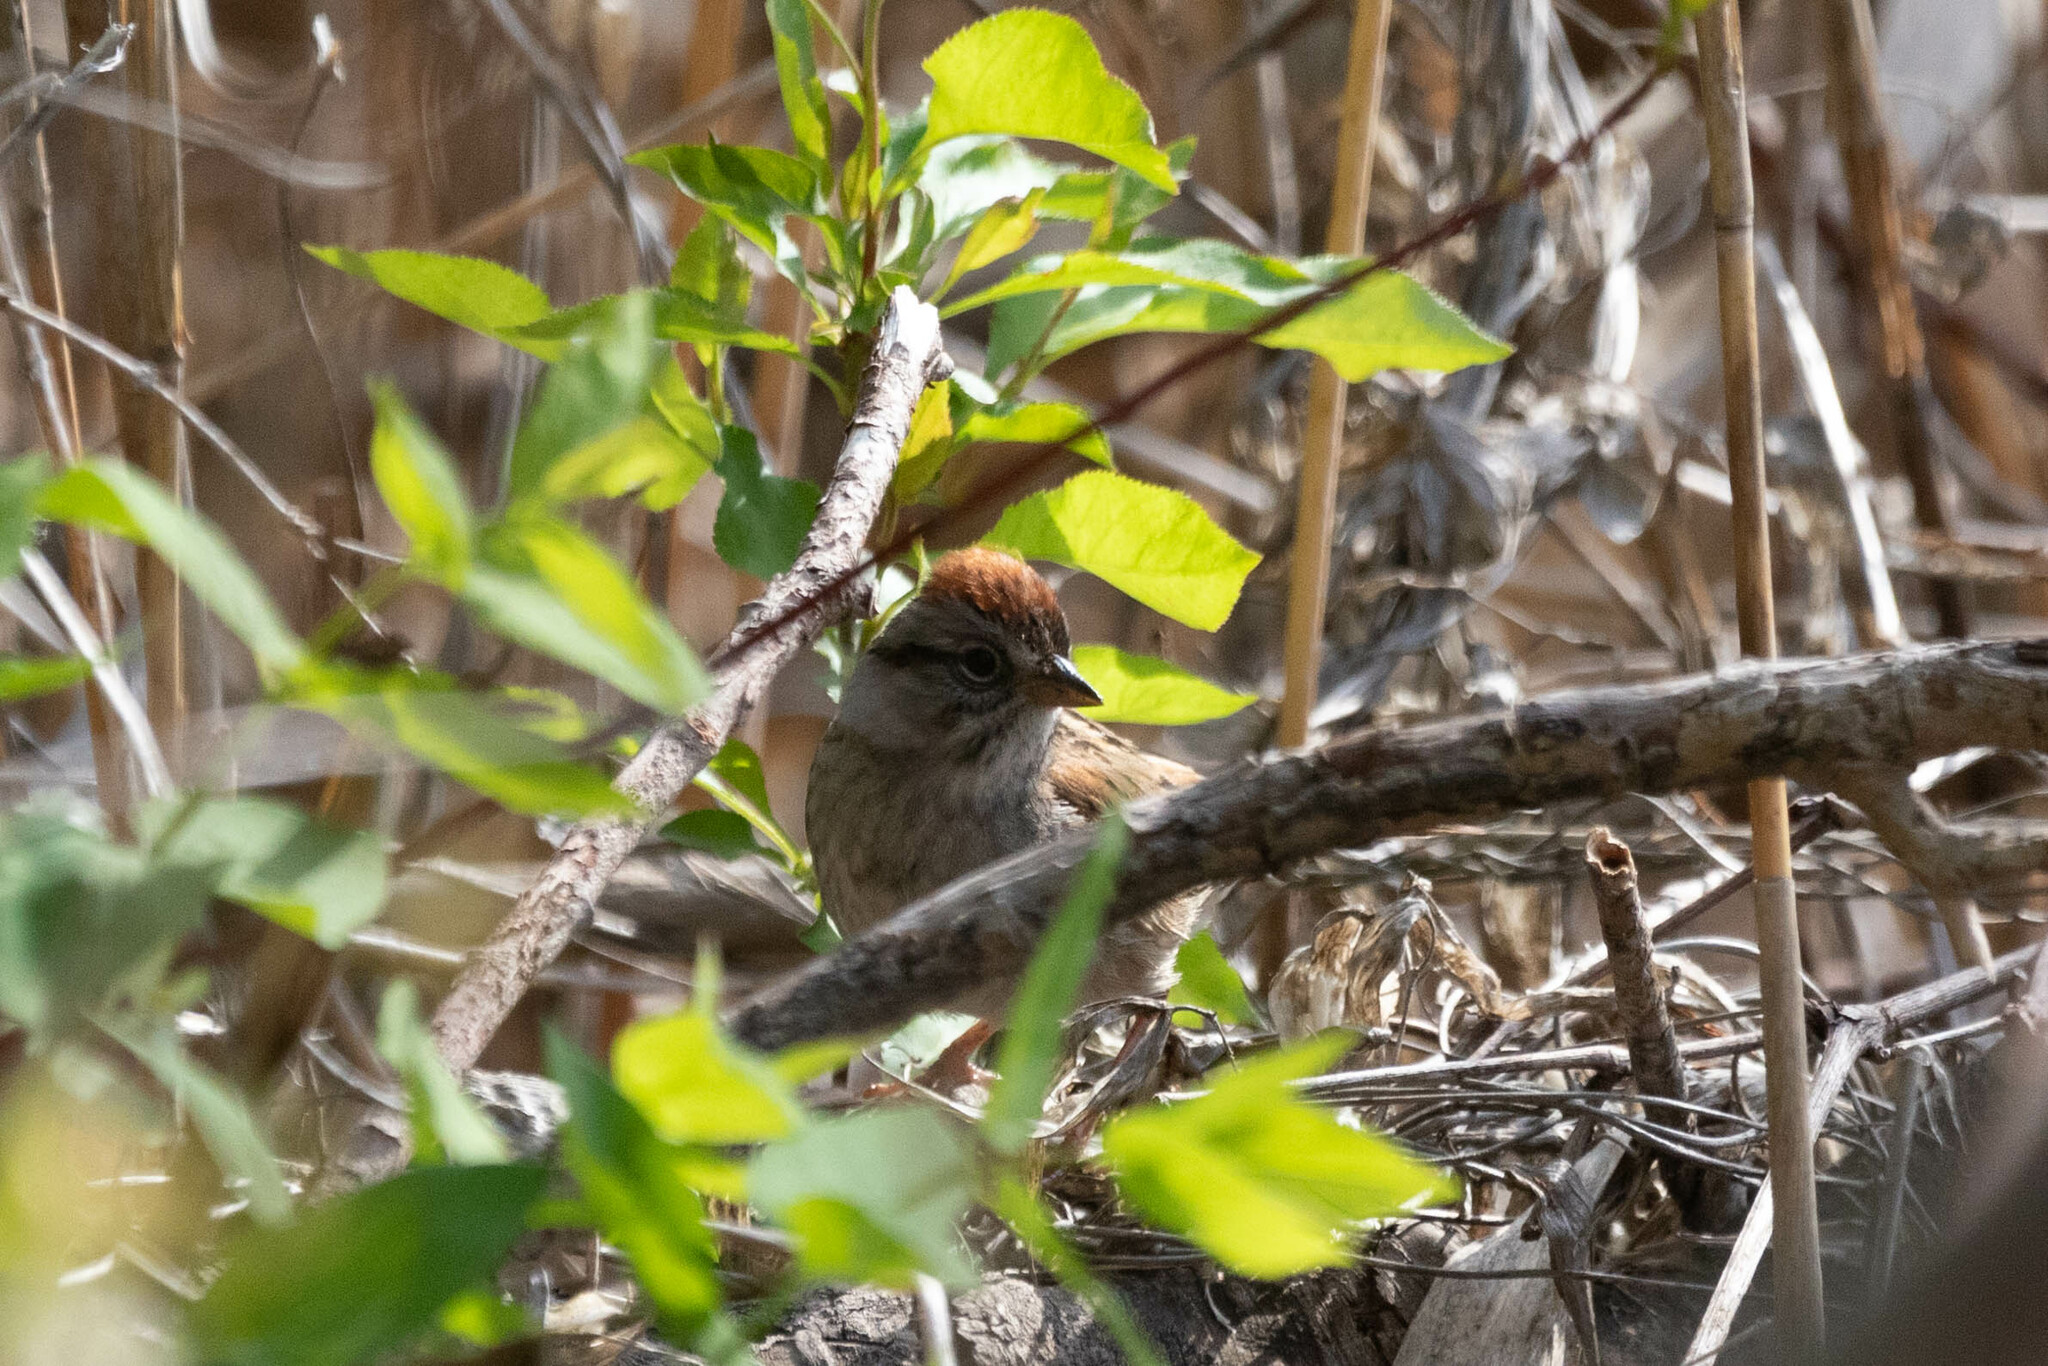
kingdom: Animalia
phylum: Chordata
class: Aves
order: Passeriformes
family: Passerellidae
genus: Melospiza
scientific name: Melospiza georgiana
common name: Swamp sparrow
